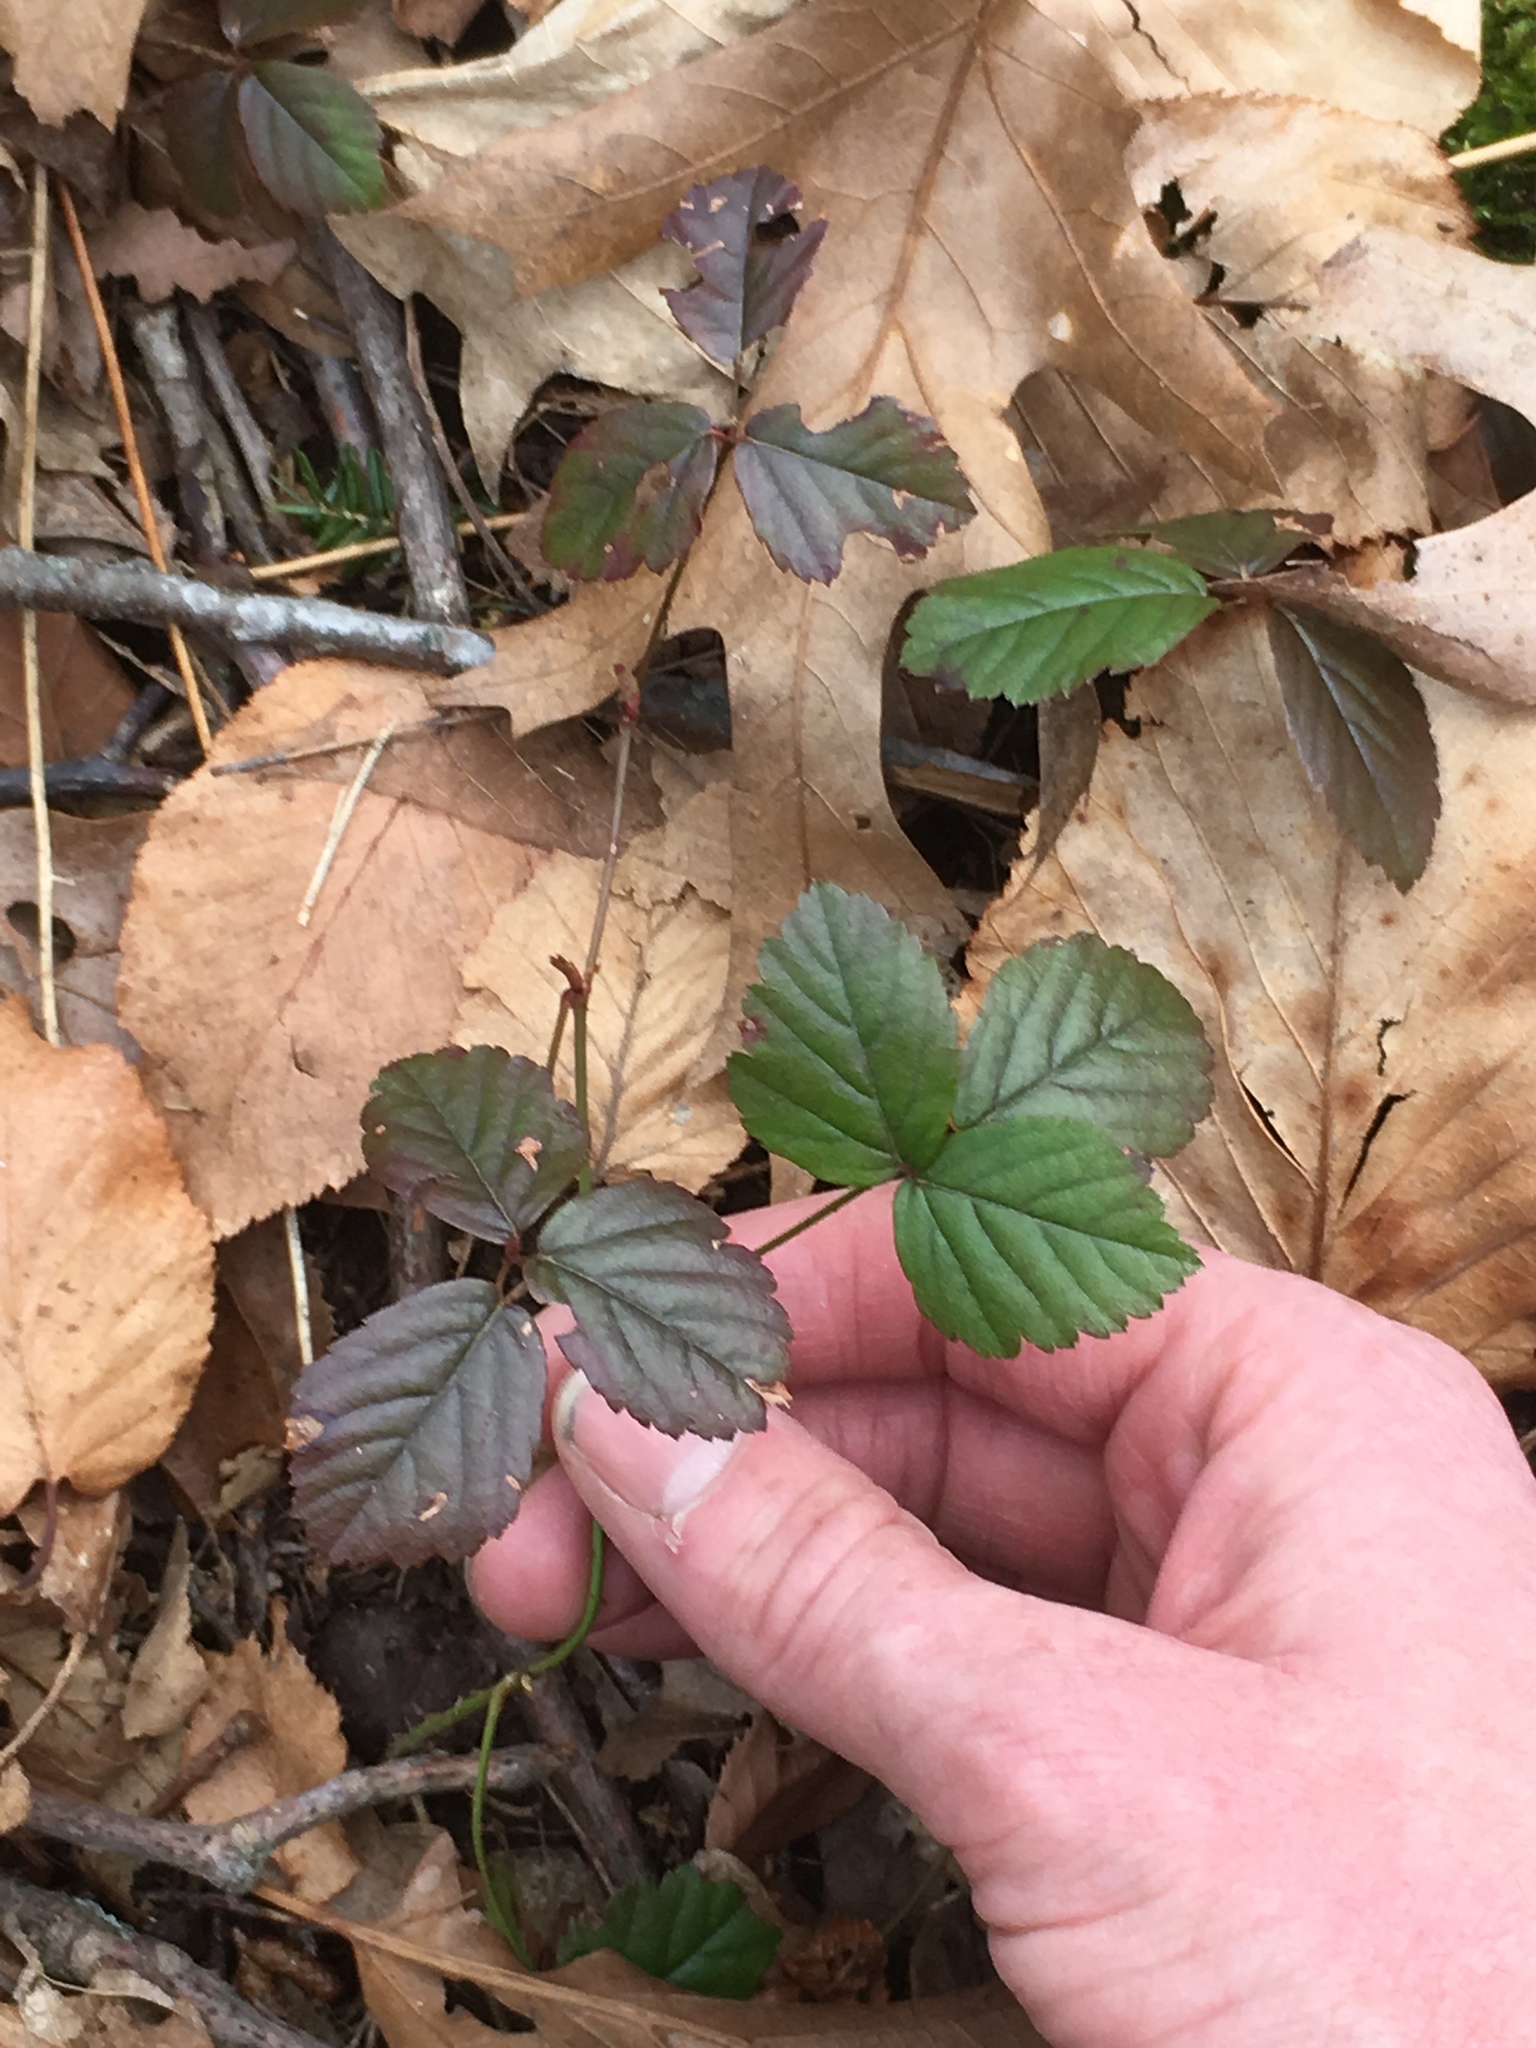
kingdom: Plantae
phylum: Tracheophyta
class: Magnoliopsida
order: Rosales
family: Rosaceae
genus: Rubus
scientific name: Rubus flagellaris
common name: American dewberry
